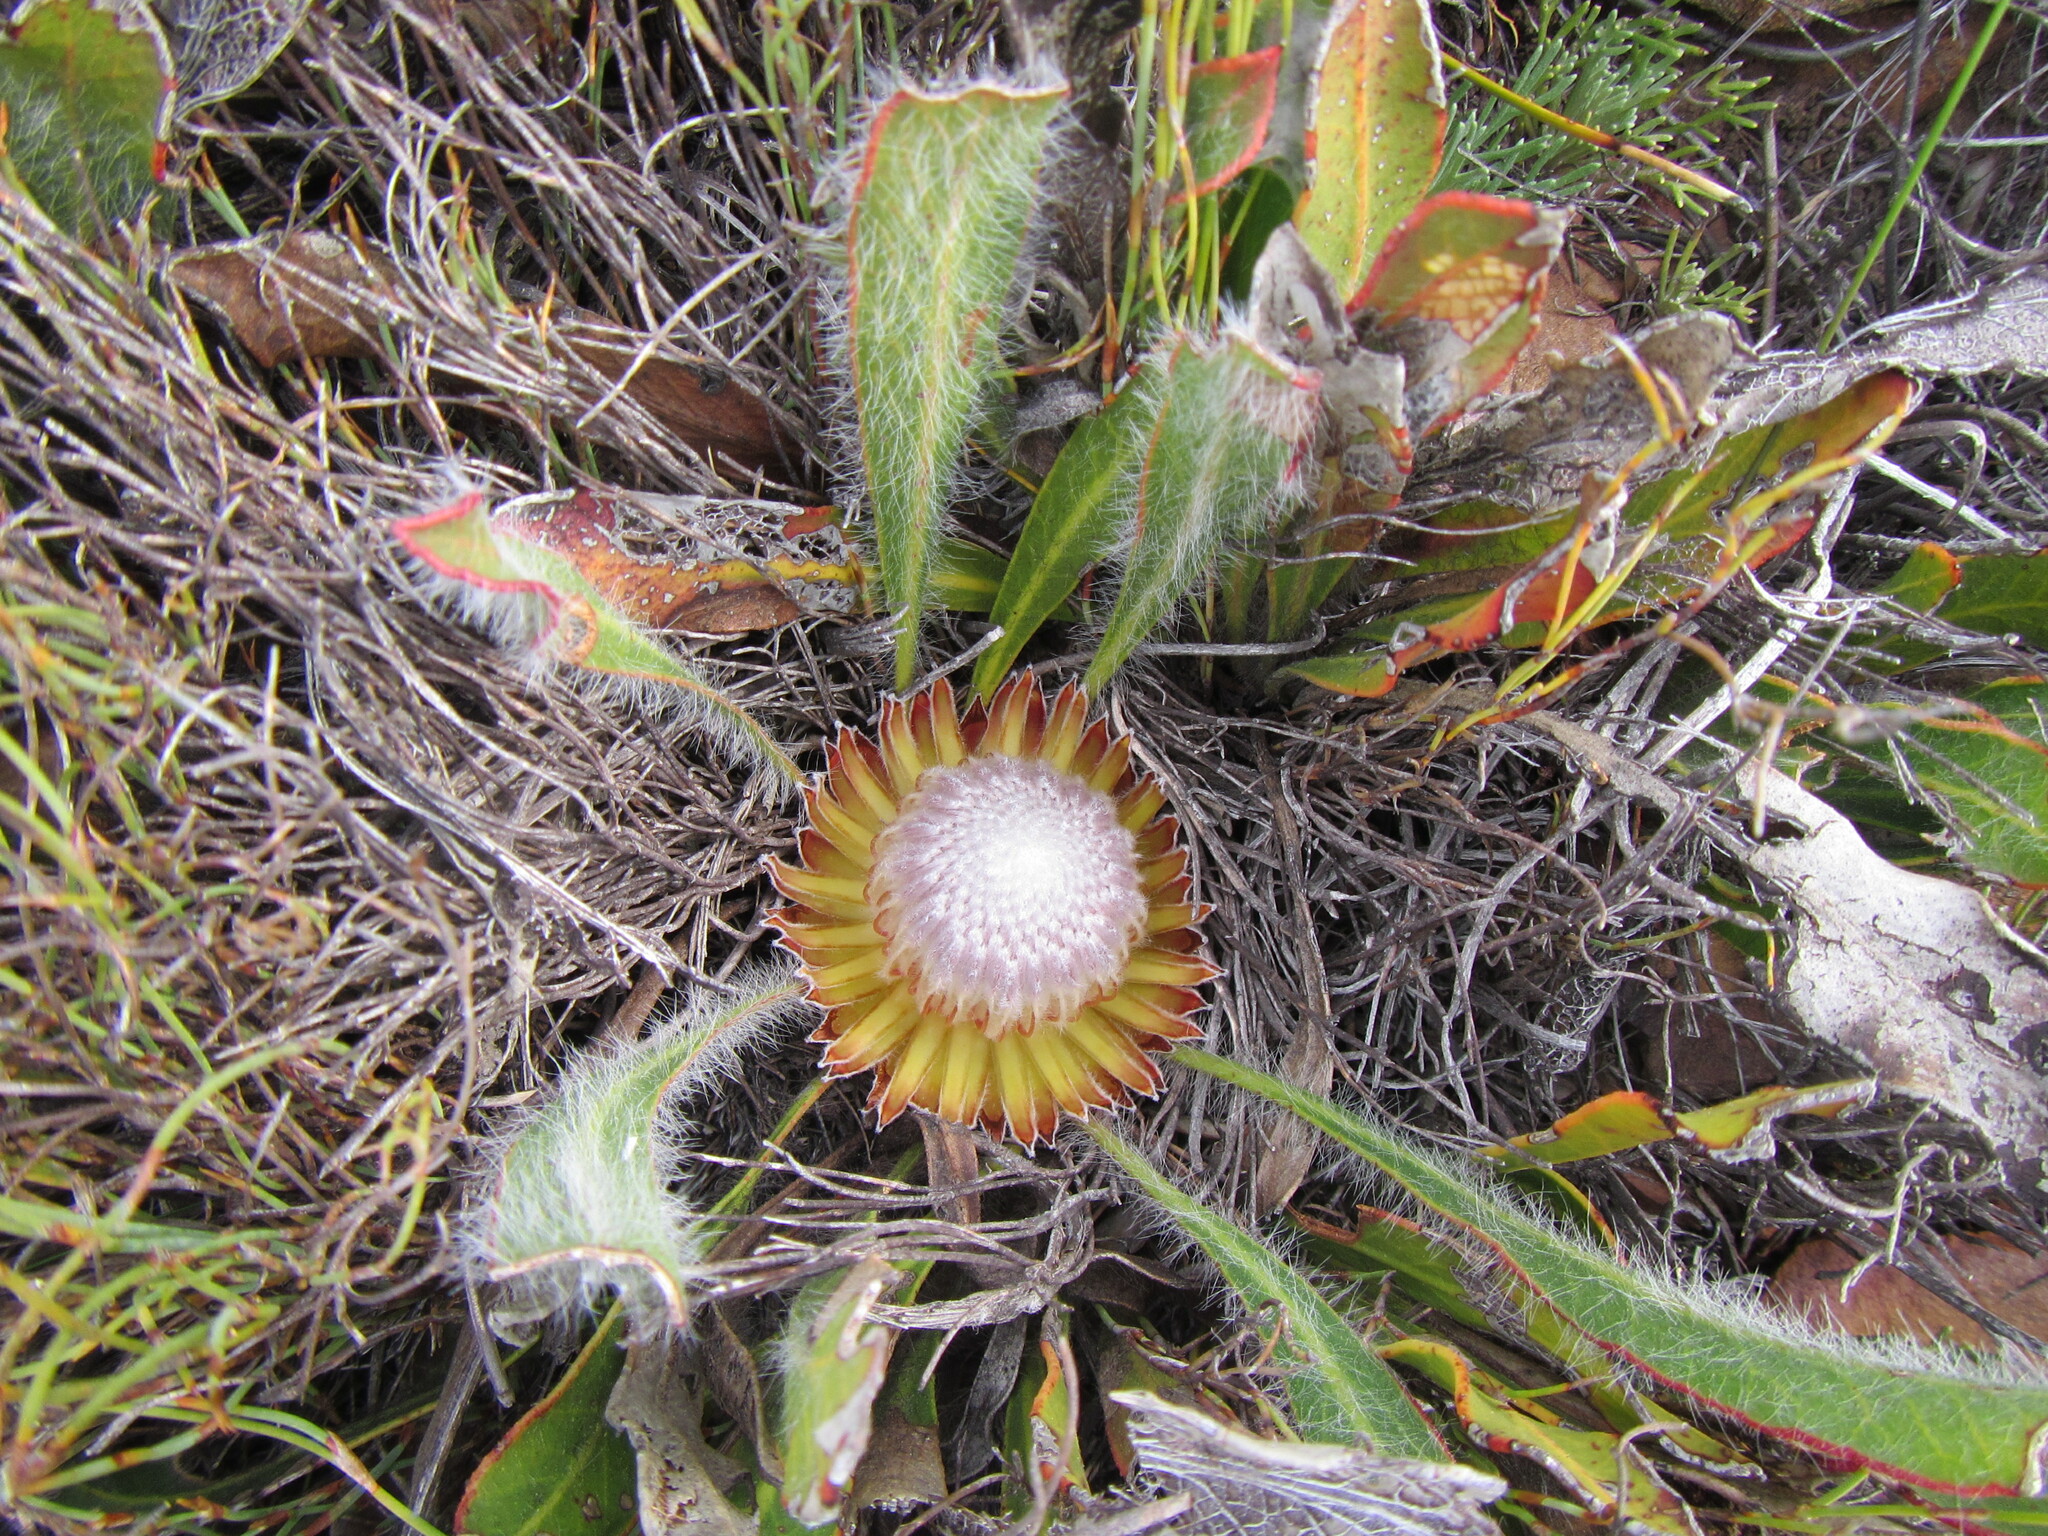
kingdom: Plantae
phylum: Tracheophyta
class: Magnoliopsida
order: Proteales
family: Proteaceae
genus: Protea
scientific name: Protea scabriuscula
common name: Hoary sugarbush
